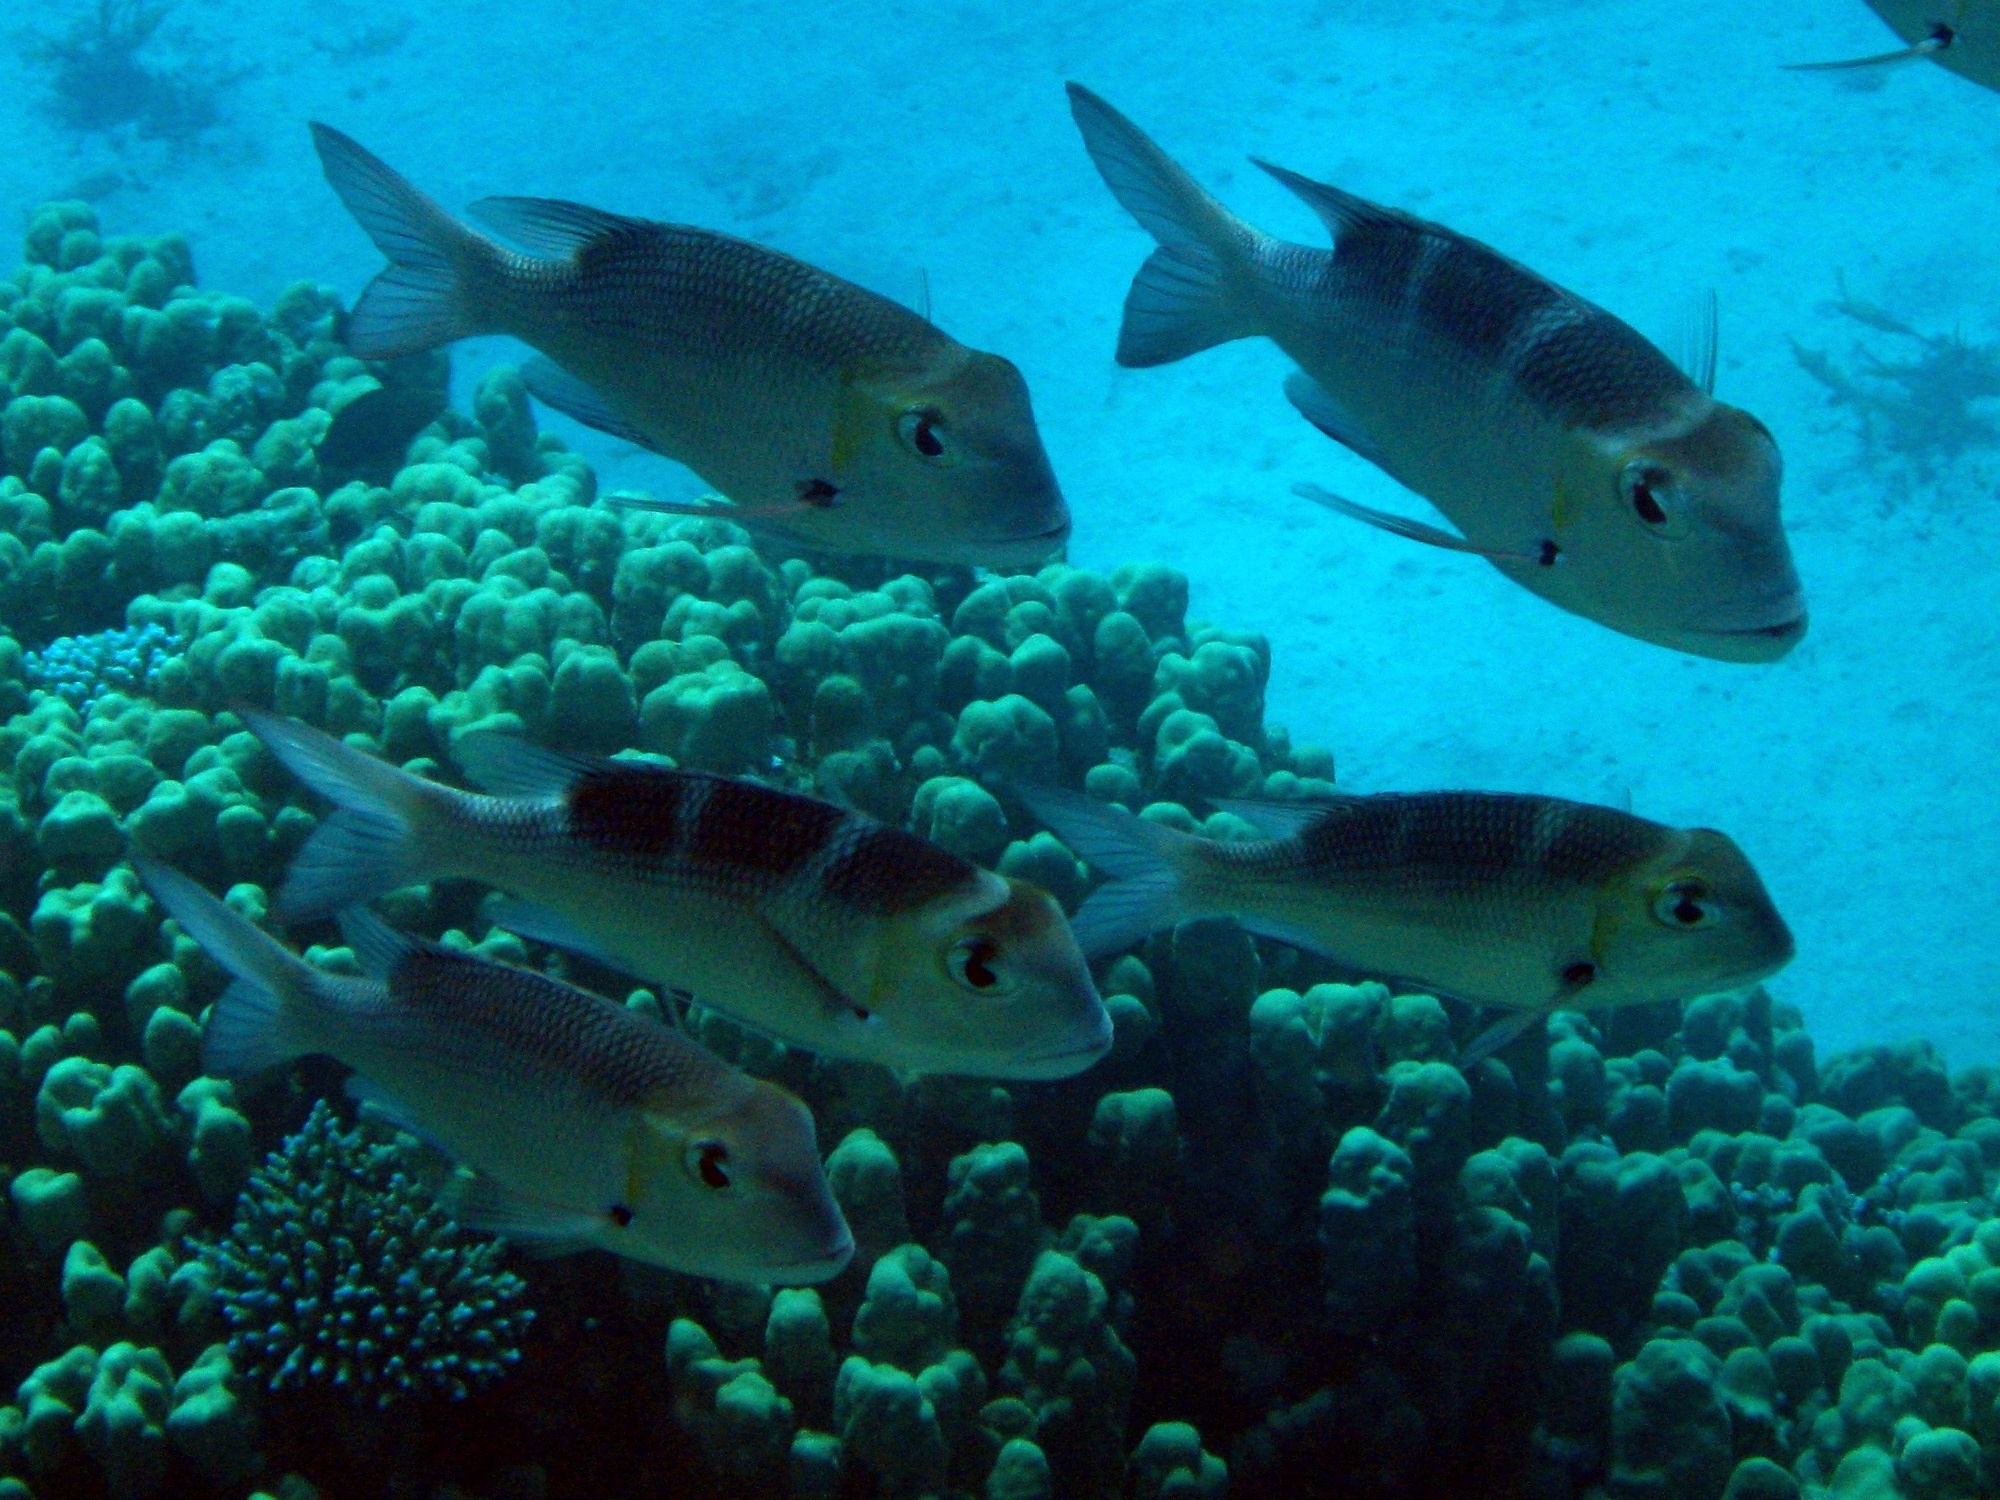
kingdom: Animalia
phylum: Chordata
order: Perciformes
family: Lethrinidae
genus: Monotaxis
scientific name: Monotaxis grandoculis
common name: Bigeye emperor
